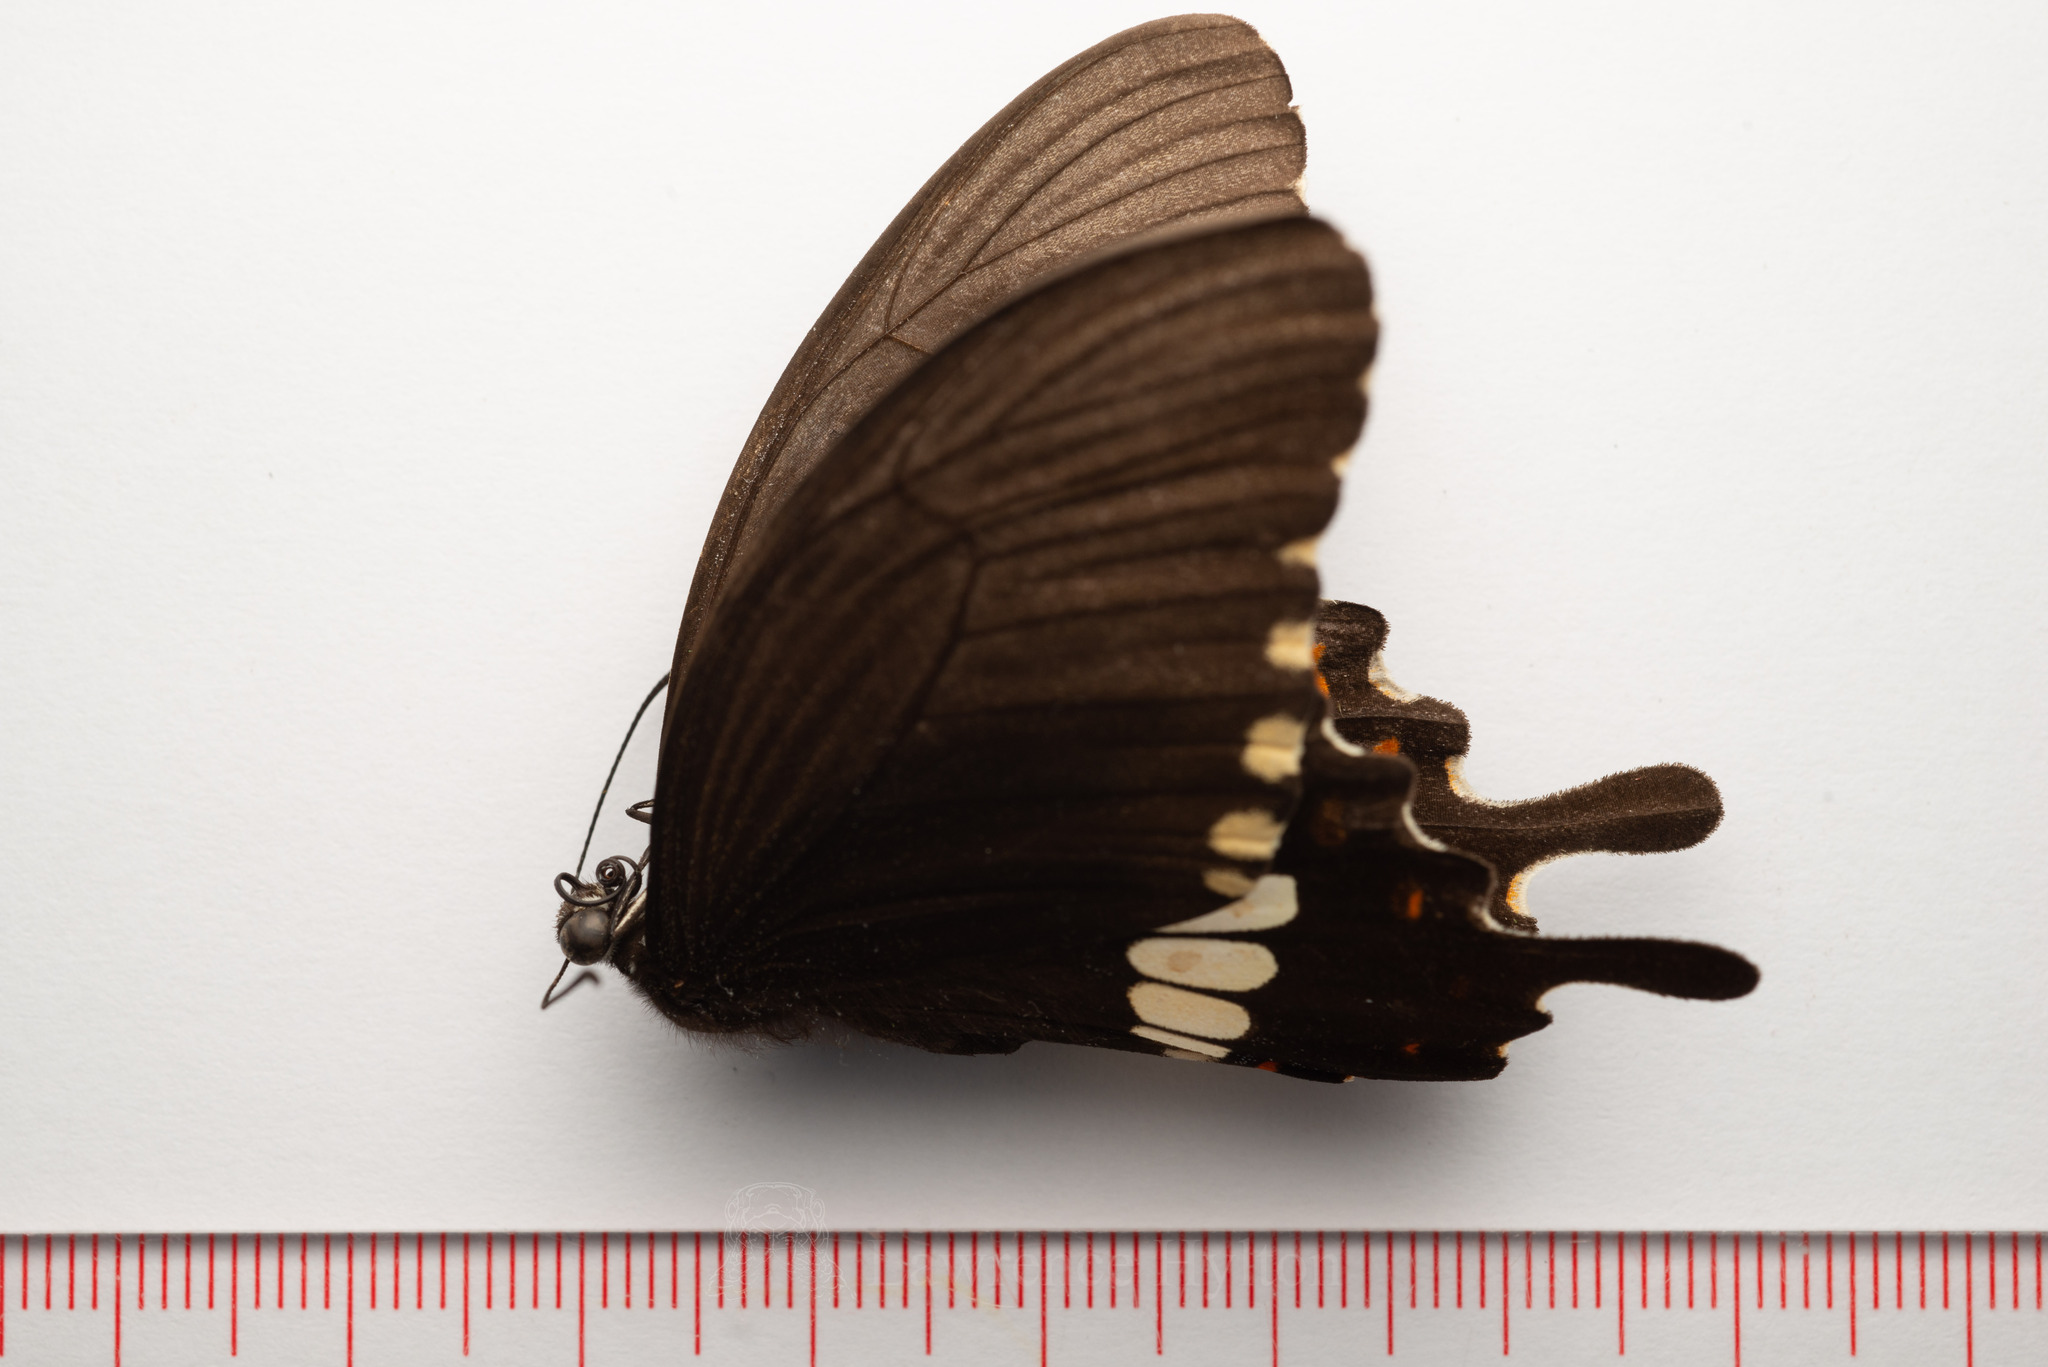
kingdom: Animalia
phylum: Arthropoda
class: Insecta
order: Lepidoptera
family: Papilionidae
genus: Papilio
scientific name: Papilio polytes
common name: Common mormon
